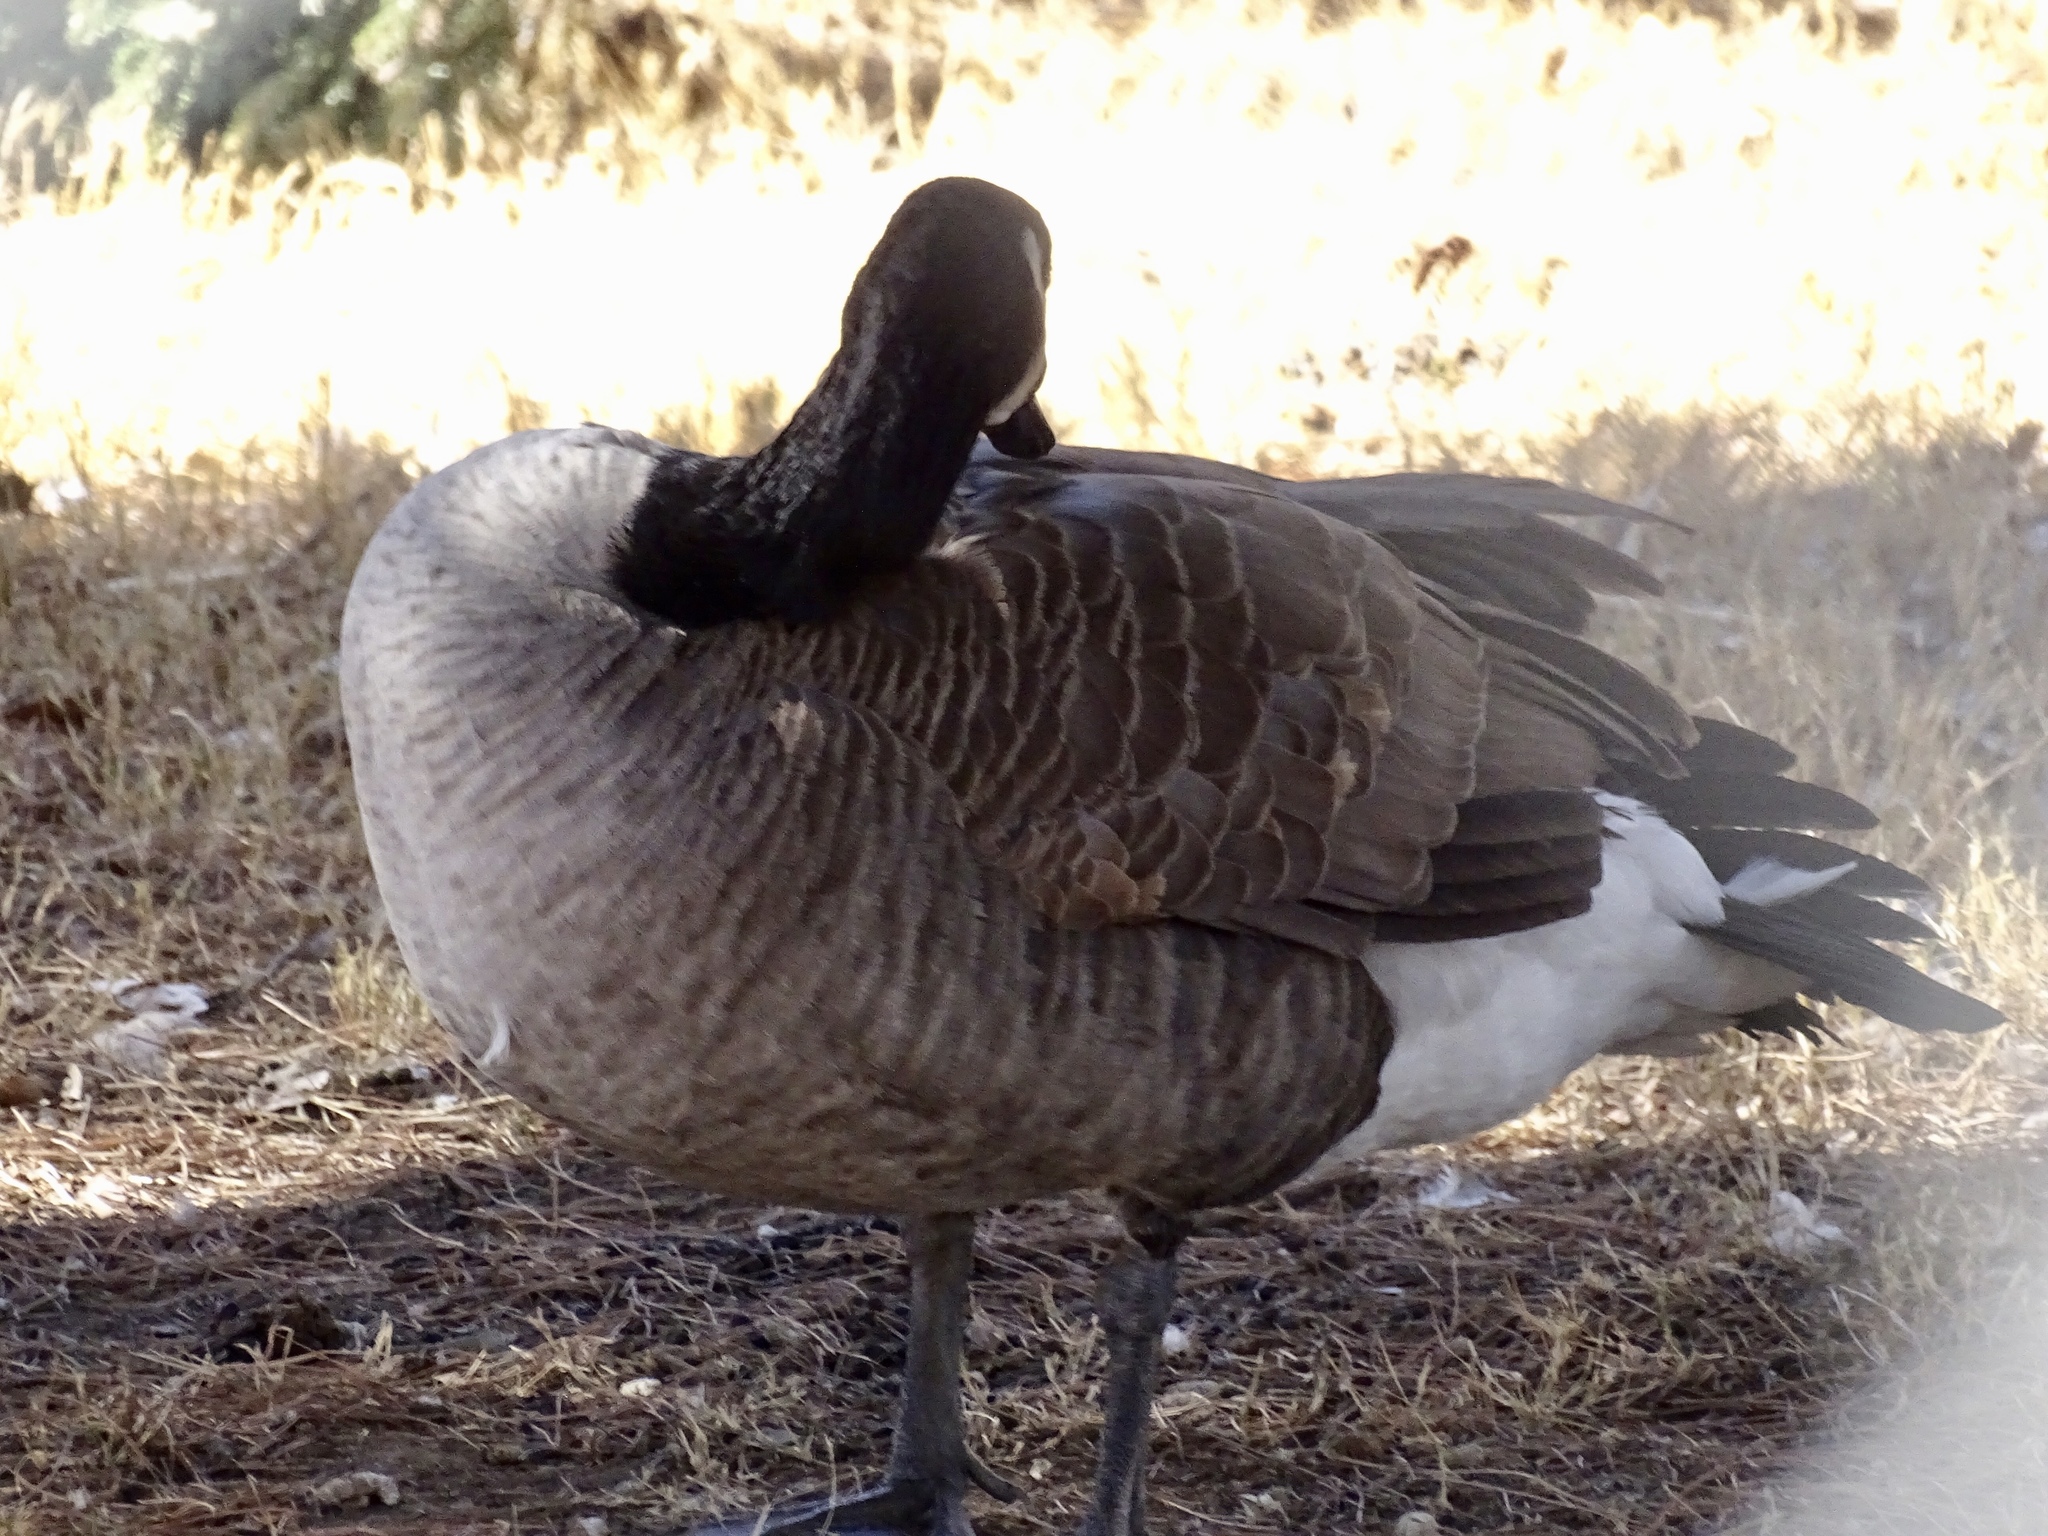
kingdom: Animalia
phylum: Chordata
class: Aves
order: Anseriformes
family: Anatidae
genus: Branta
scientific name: Branta canadensis
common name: Canada goose
